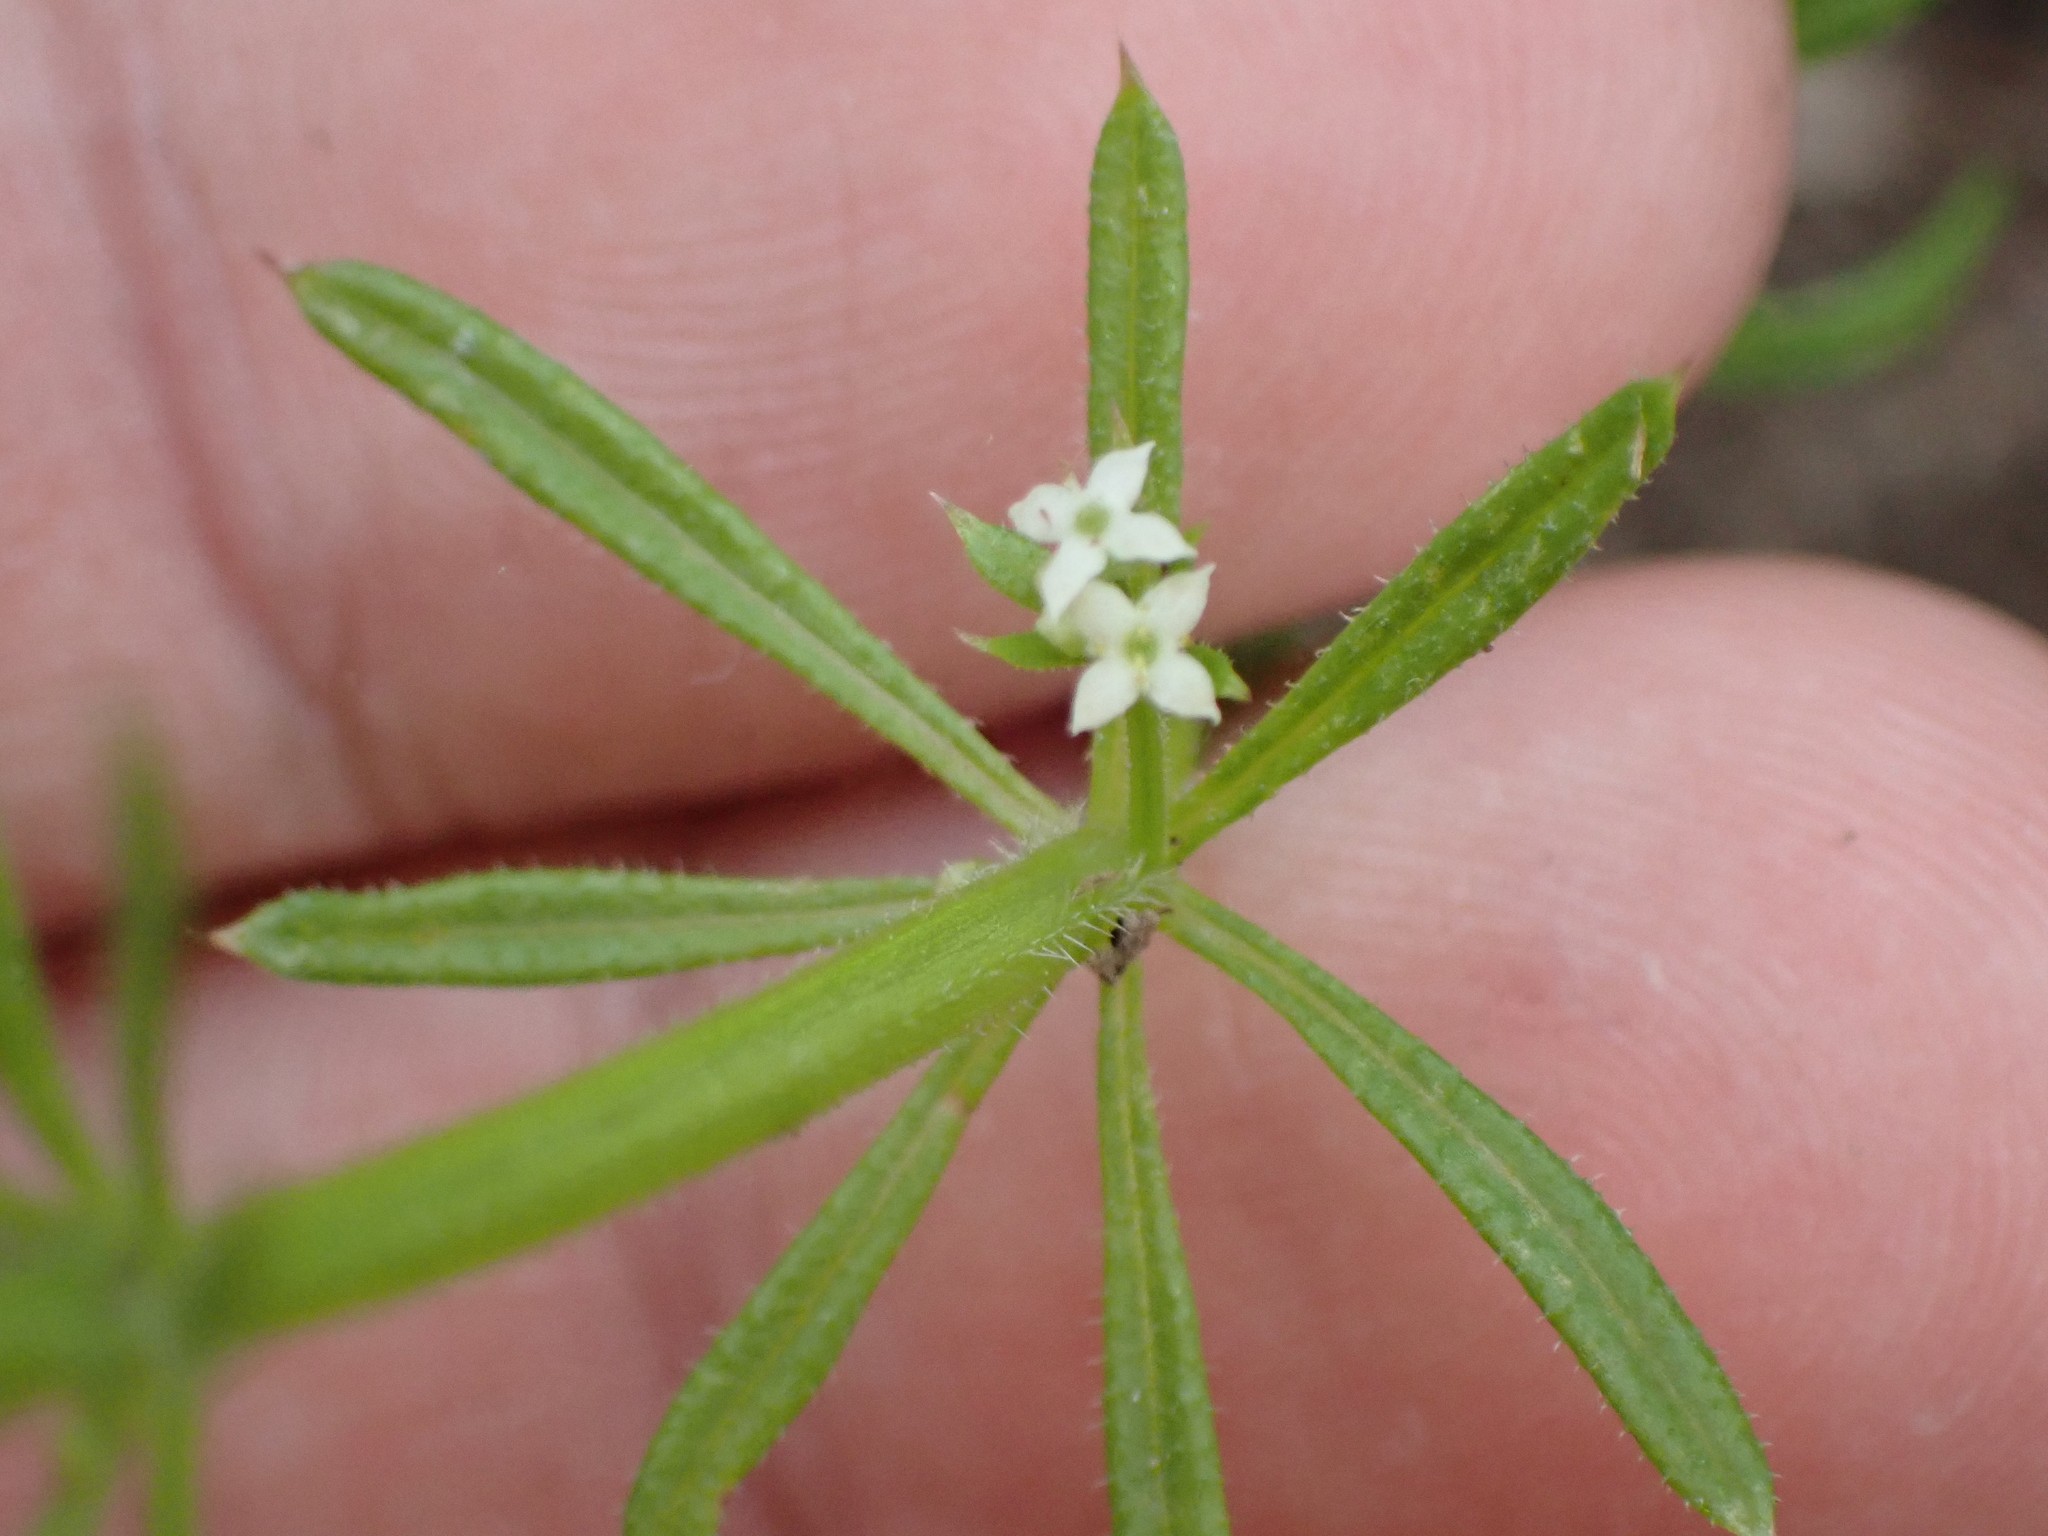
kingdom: Plantae
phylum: Tracheophyta
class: Magnoliopsida
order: Gentianales
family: Rubiaceae
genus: Galium
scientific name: Galium aparine
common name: Cleavers
